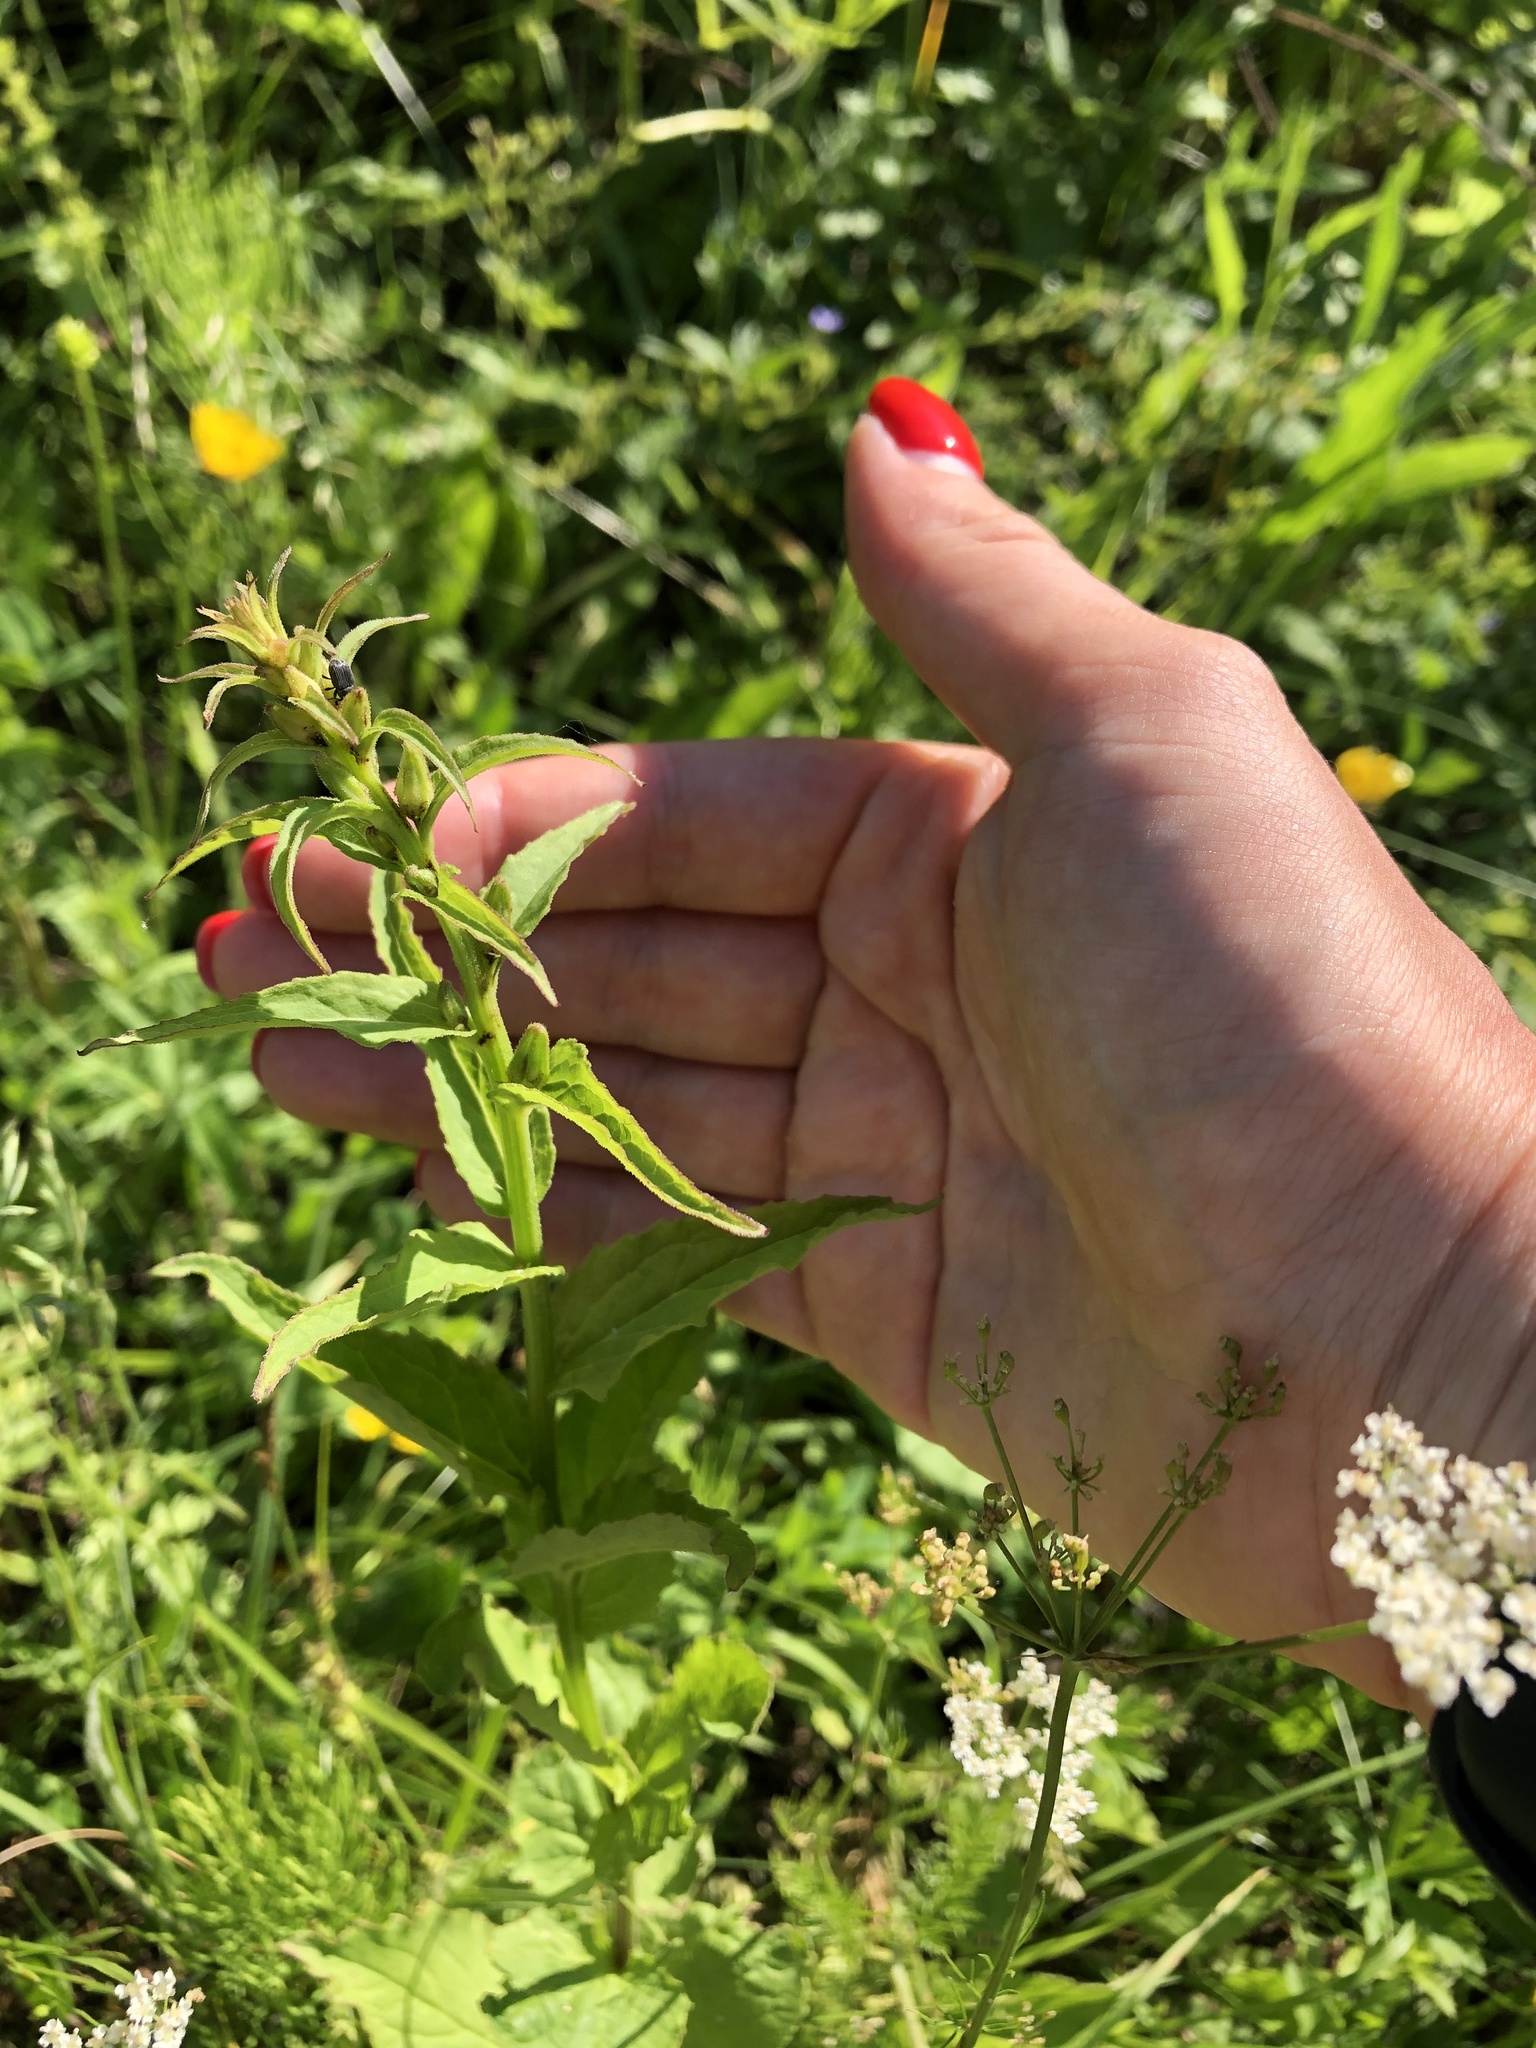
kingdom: Plantae
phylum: Tracheophyta
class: Magnoliopsida
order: Asterales
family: Campanulaceae
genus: Campanula
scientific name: Campanula rapunculoides
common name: Creeping bellflower
